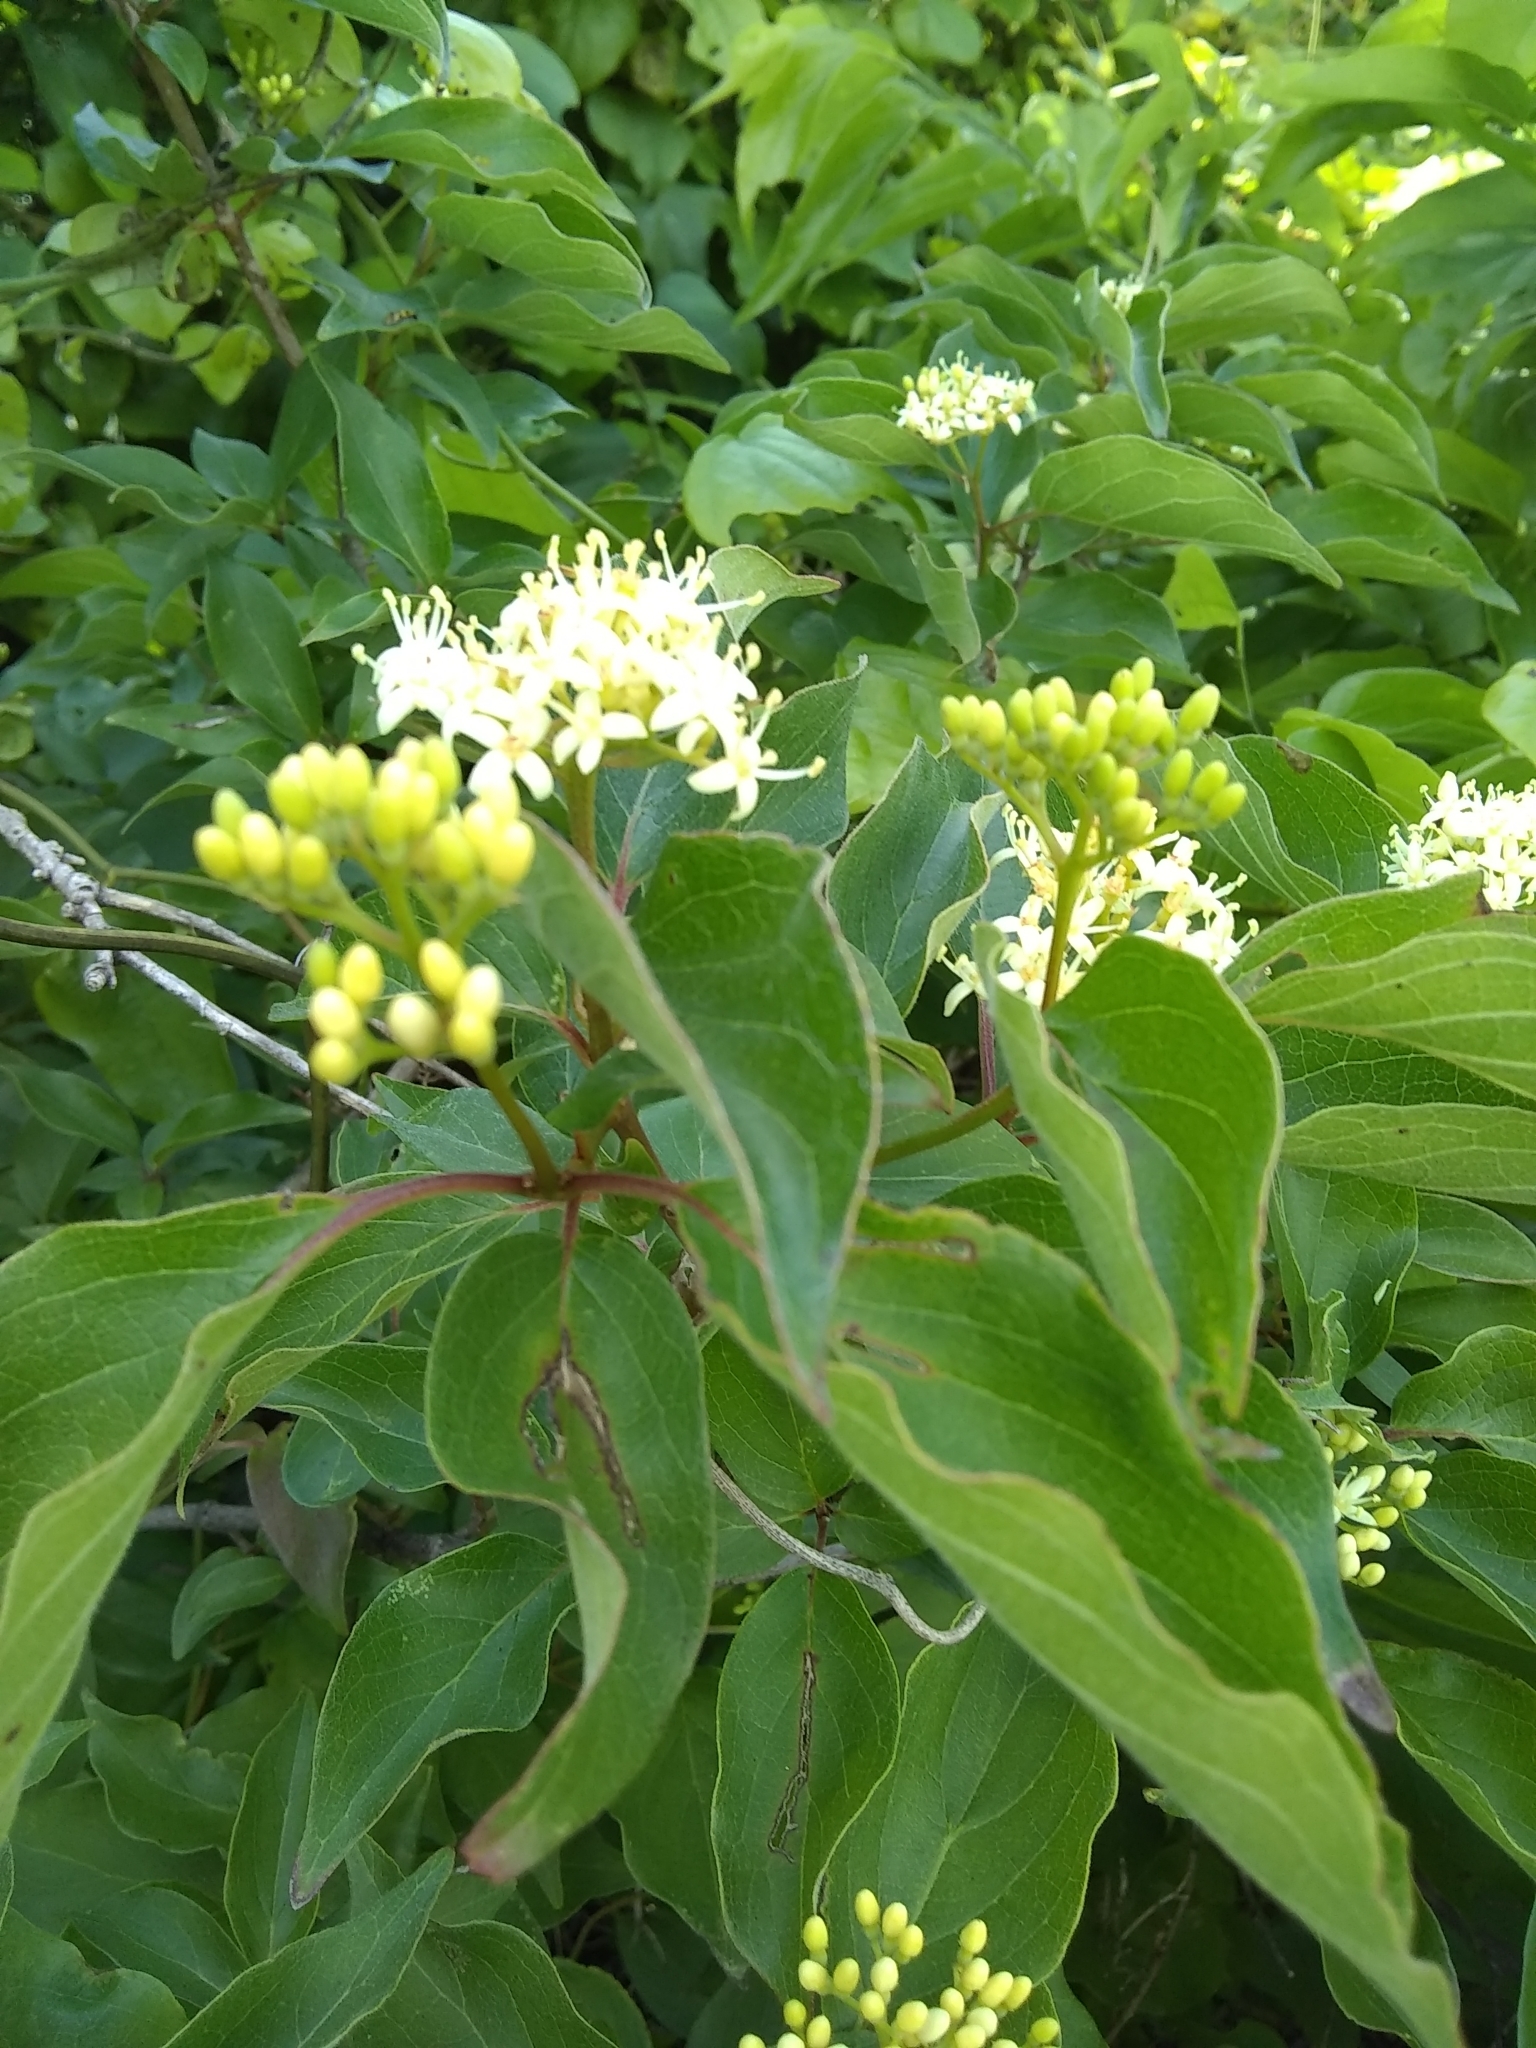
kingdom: Plantae
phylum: Tracheophyta
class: Magnoliopsida
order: Cornales
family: Cornaceae
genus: Cornus
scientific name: Cornus drummondii
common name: Rough-leaf dogwood
